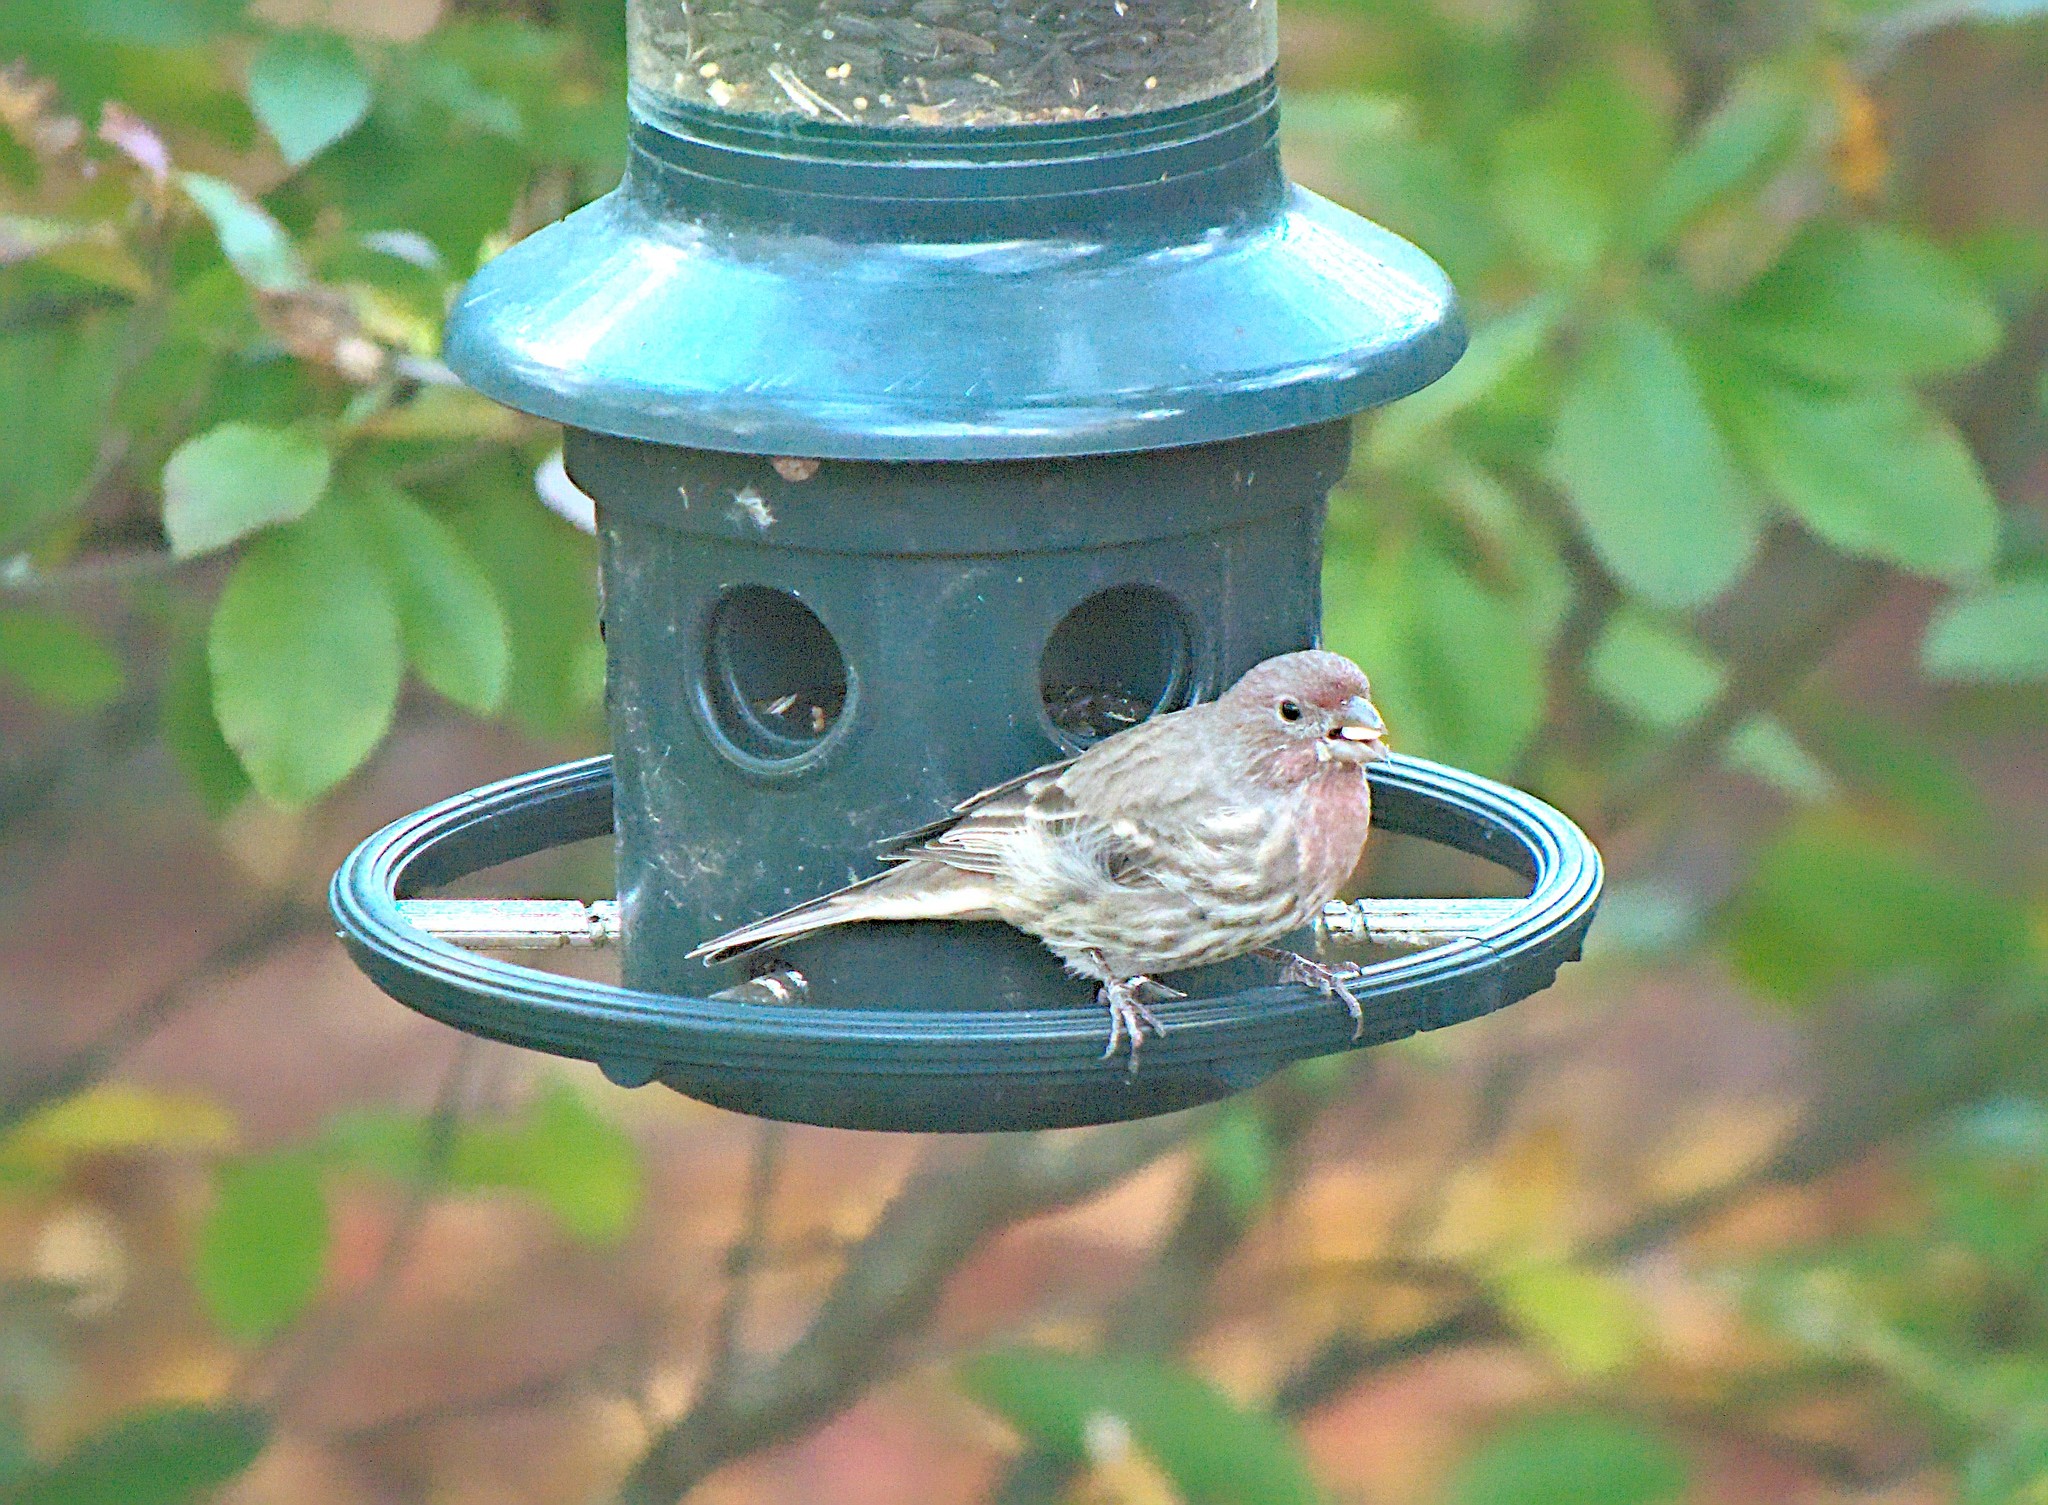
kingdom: Animalia
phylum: Chordata
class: Aves
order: Passeriformes
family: Fringillidae
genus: Haemorhous
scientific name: Haemorhous mexicanus
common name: House finch
